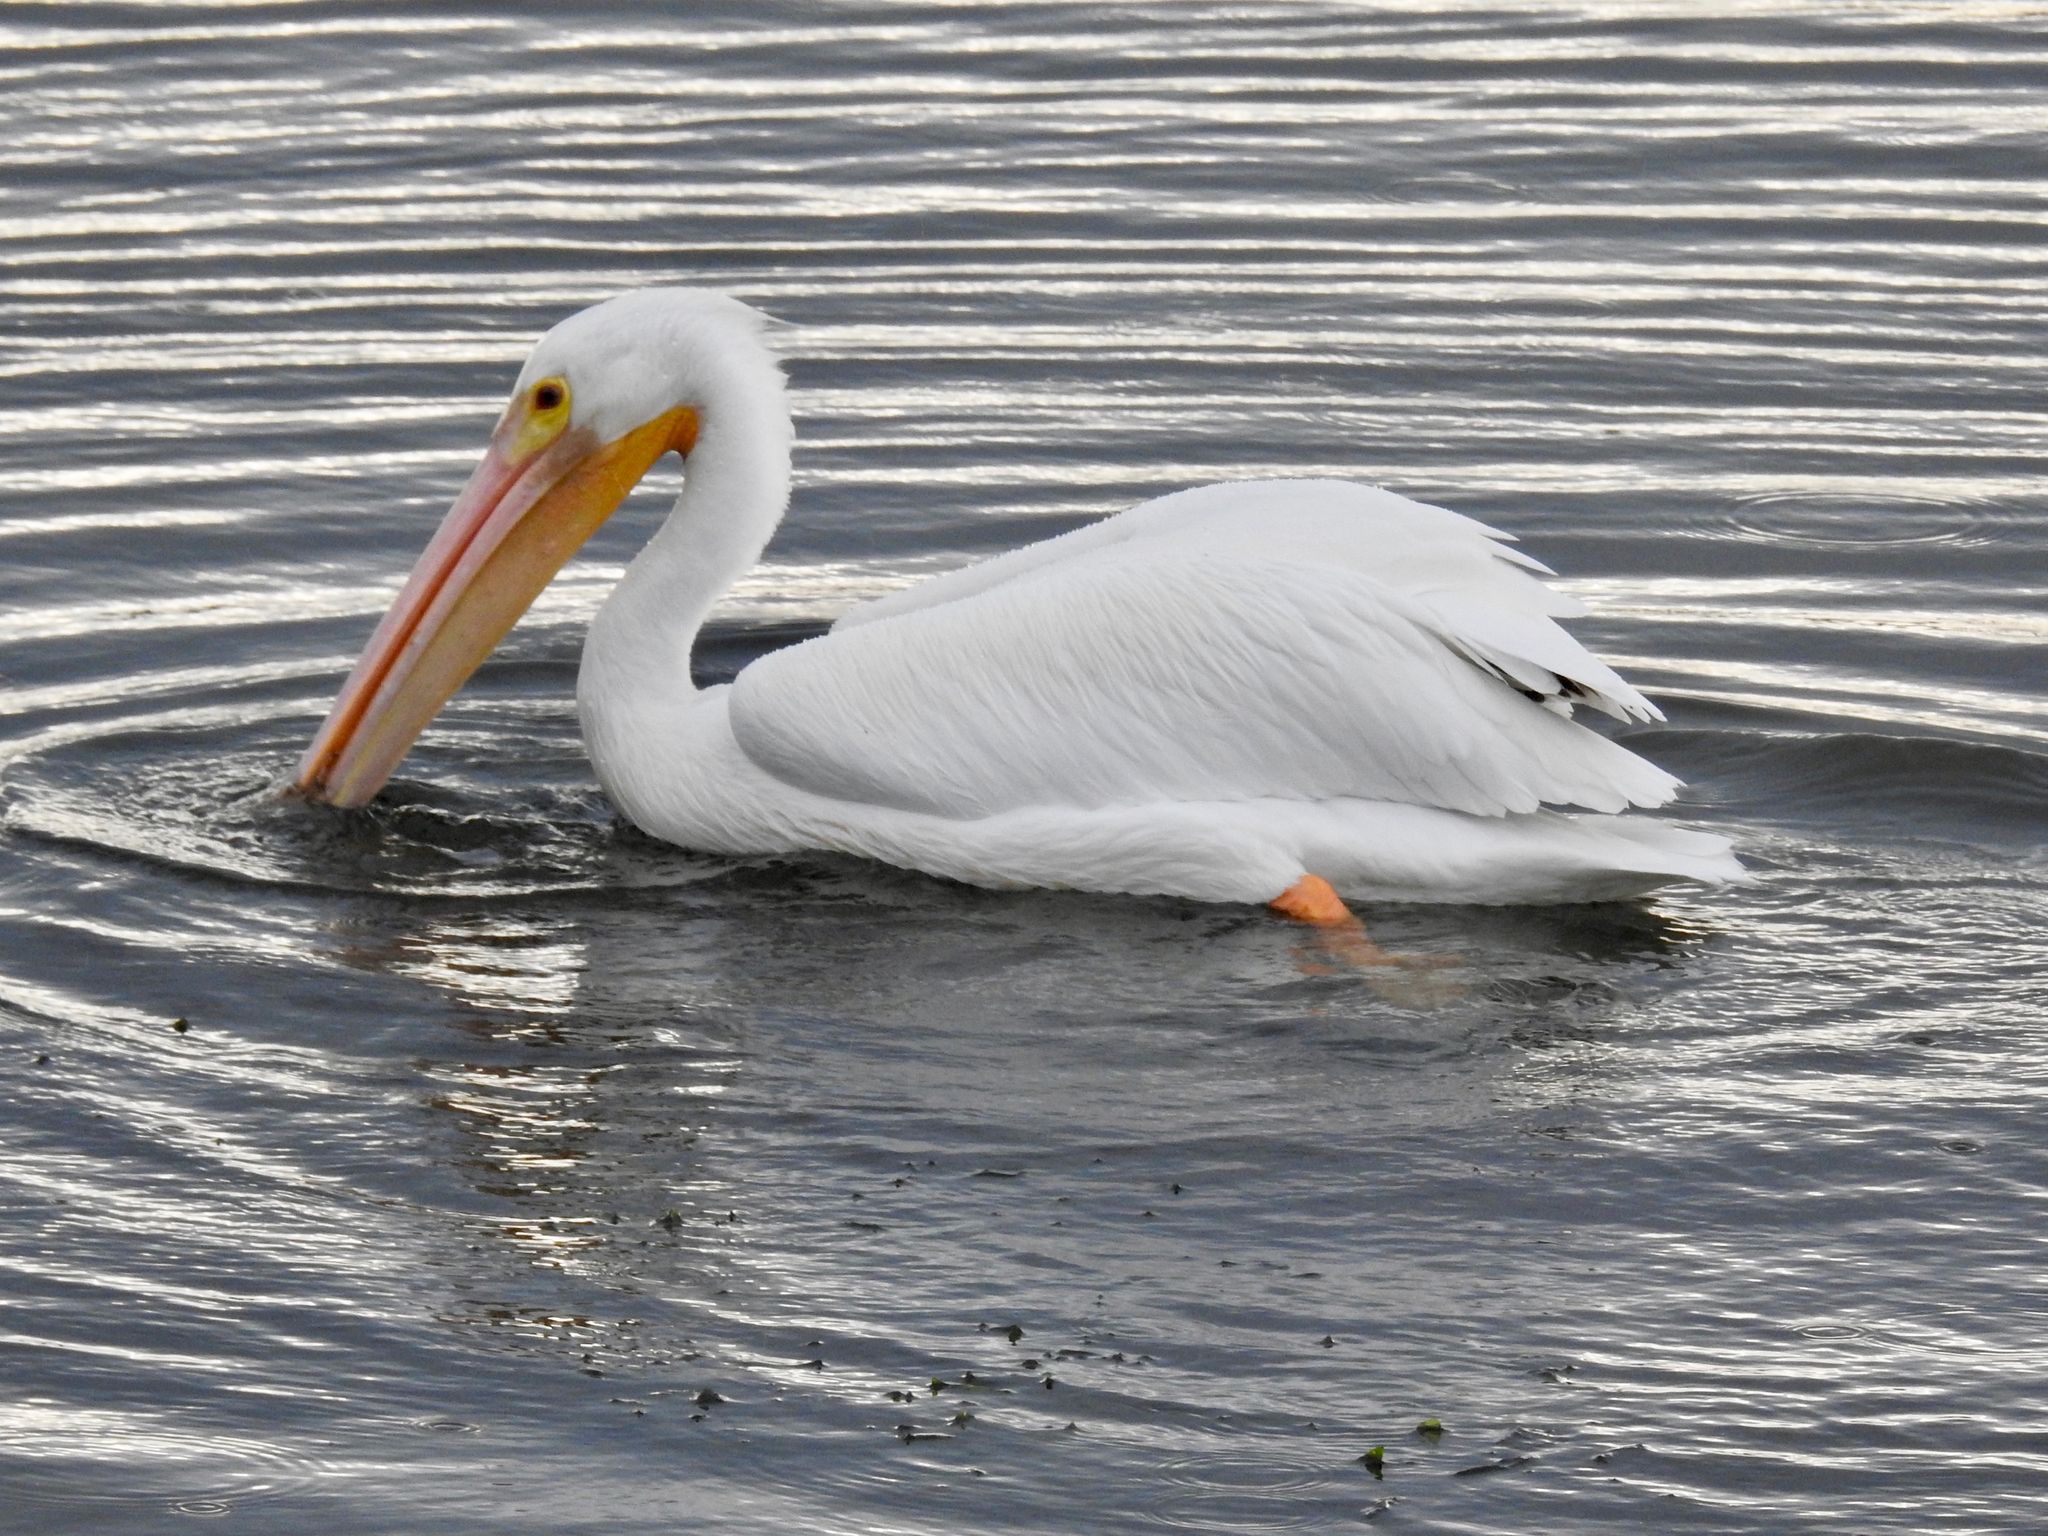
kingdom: Animalia
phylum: Chordata
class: Aves
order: Pelecaniformes
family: Pelecanidae
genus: Pelecanus
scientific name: Pelecanus erythrorhynchos
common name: American white pelican
